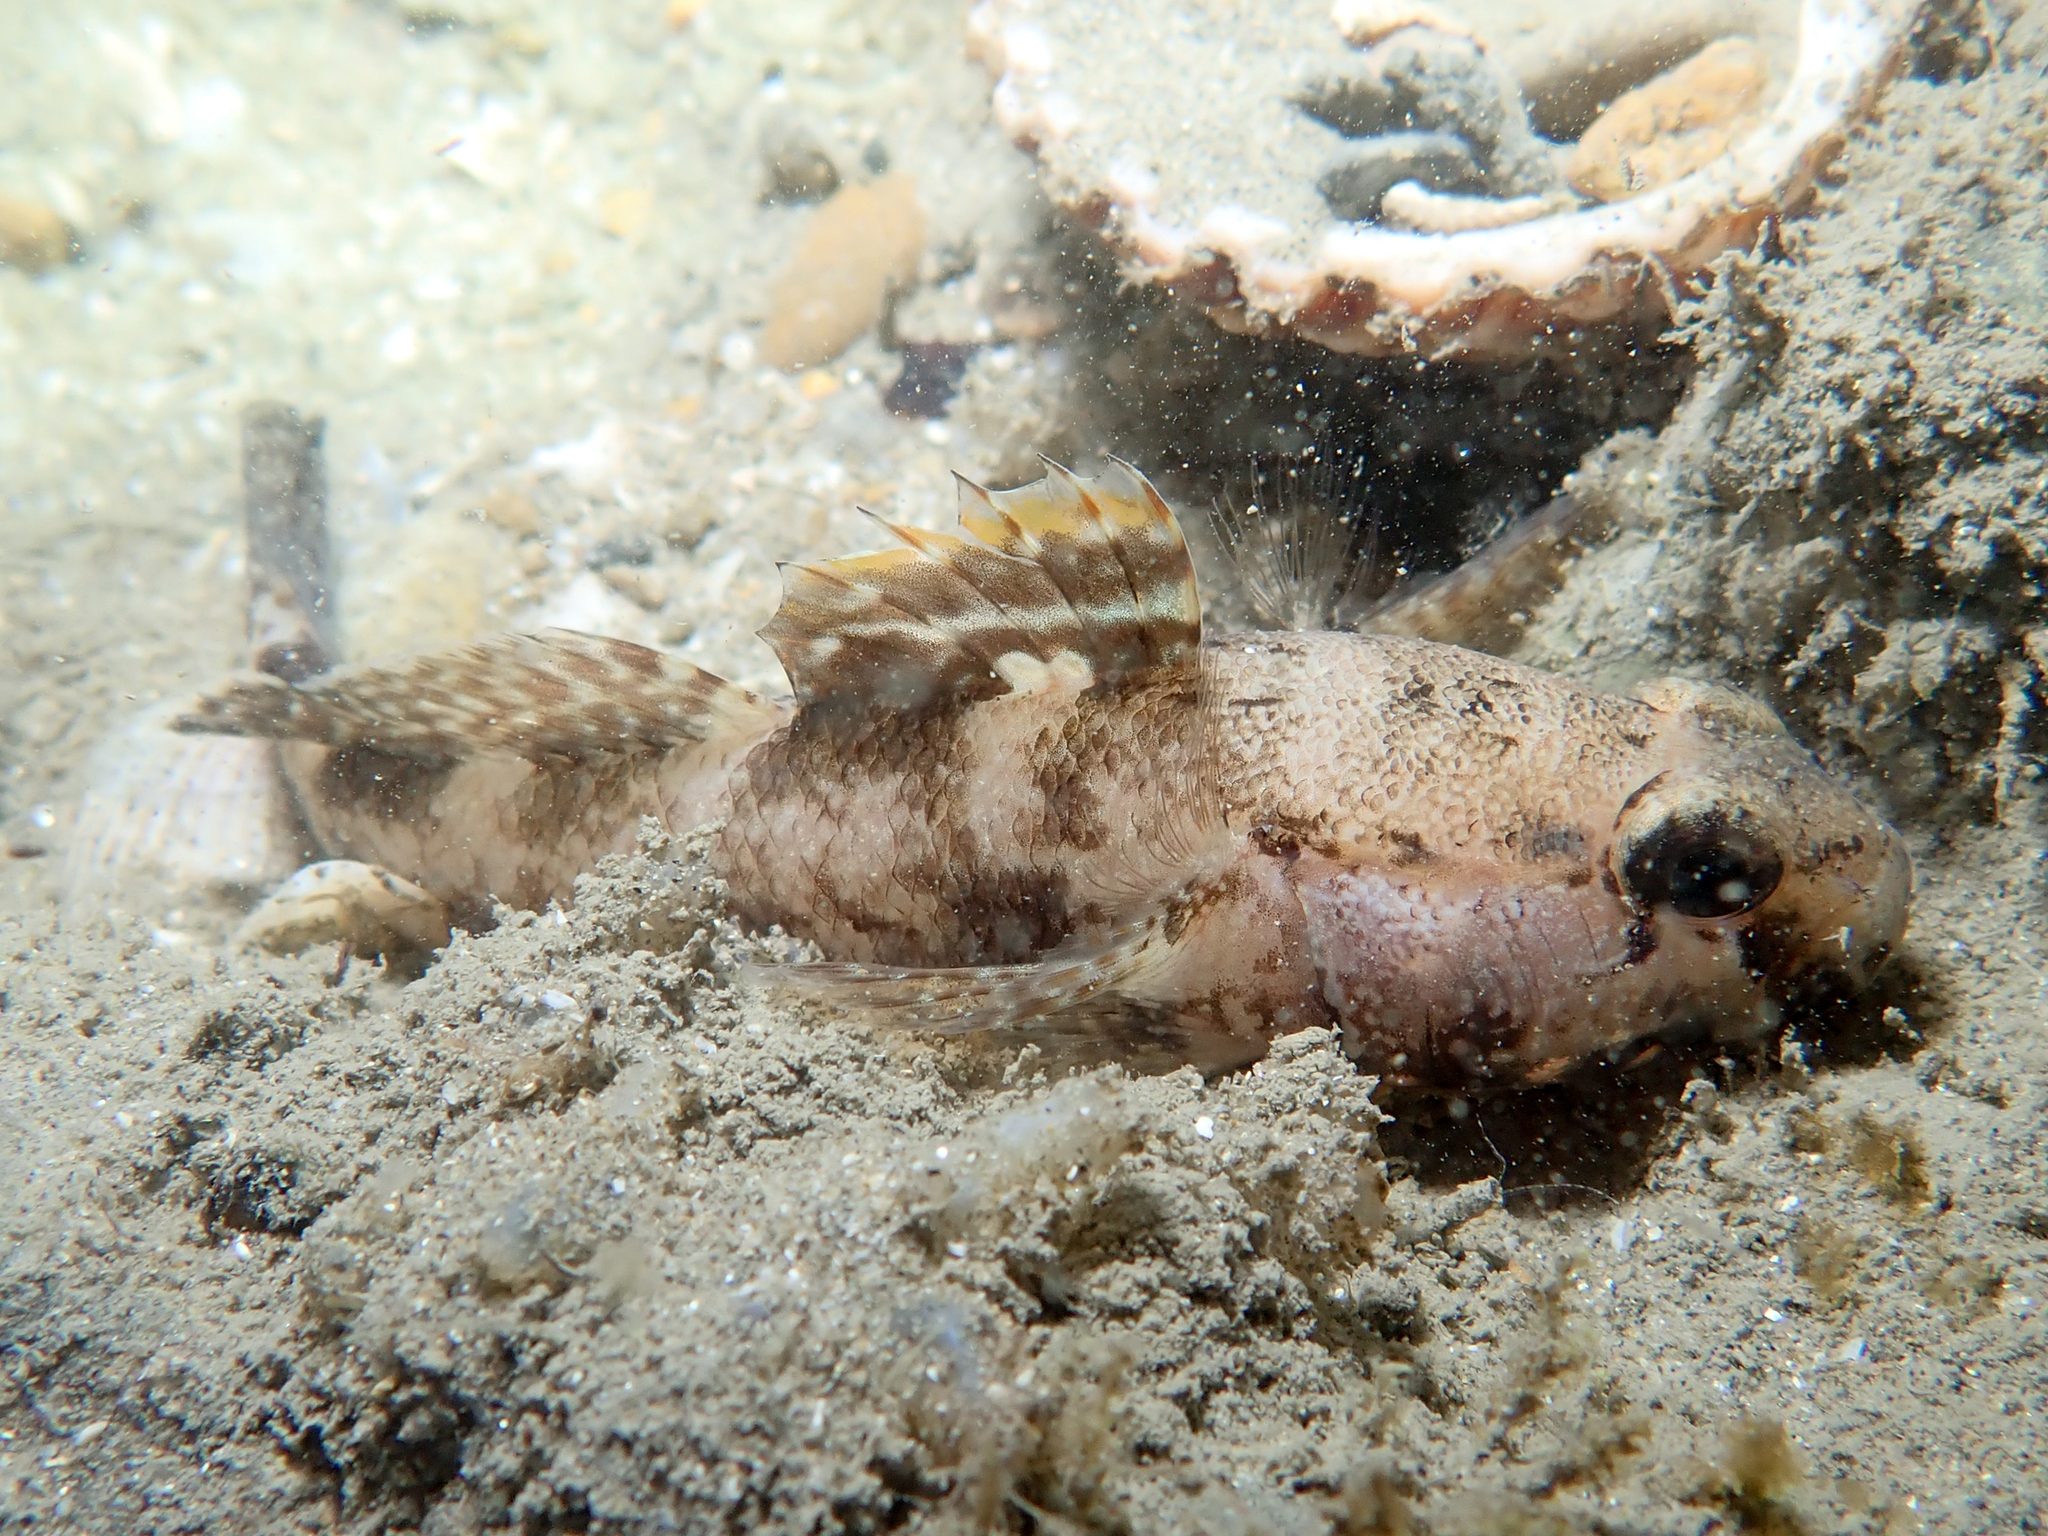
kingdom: Animalia
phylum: Chordata
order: Perciformes
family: Gobiidae
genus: Gobius
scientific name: Gobius paganellus
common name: Rock goby
